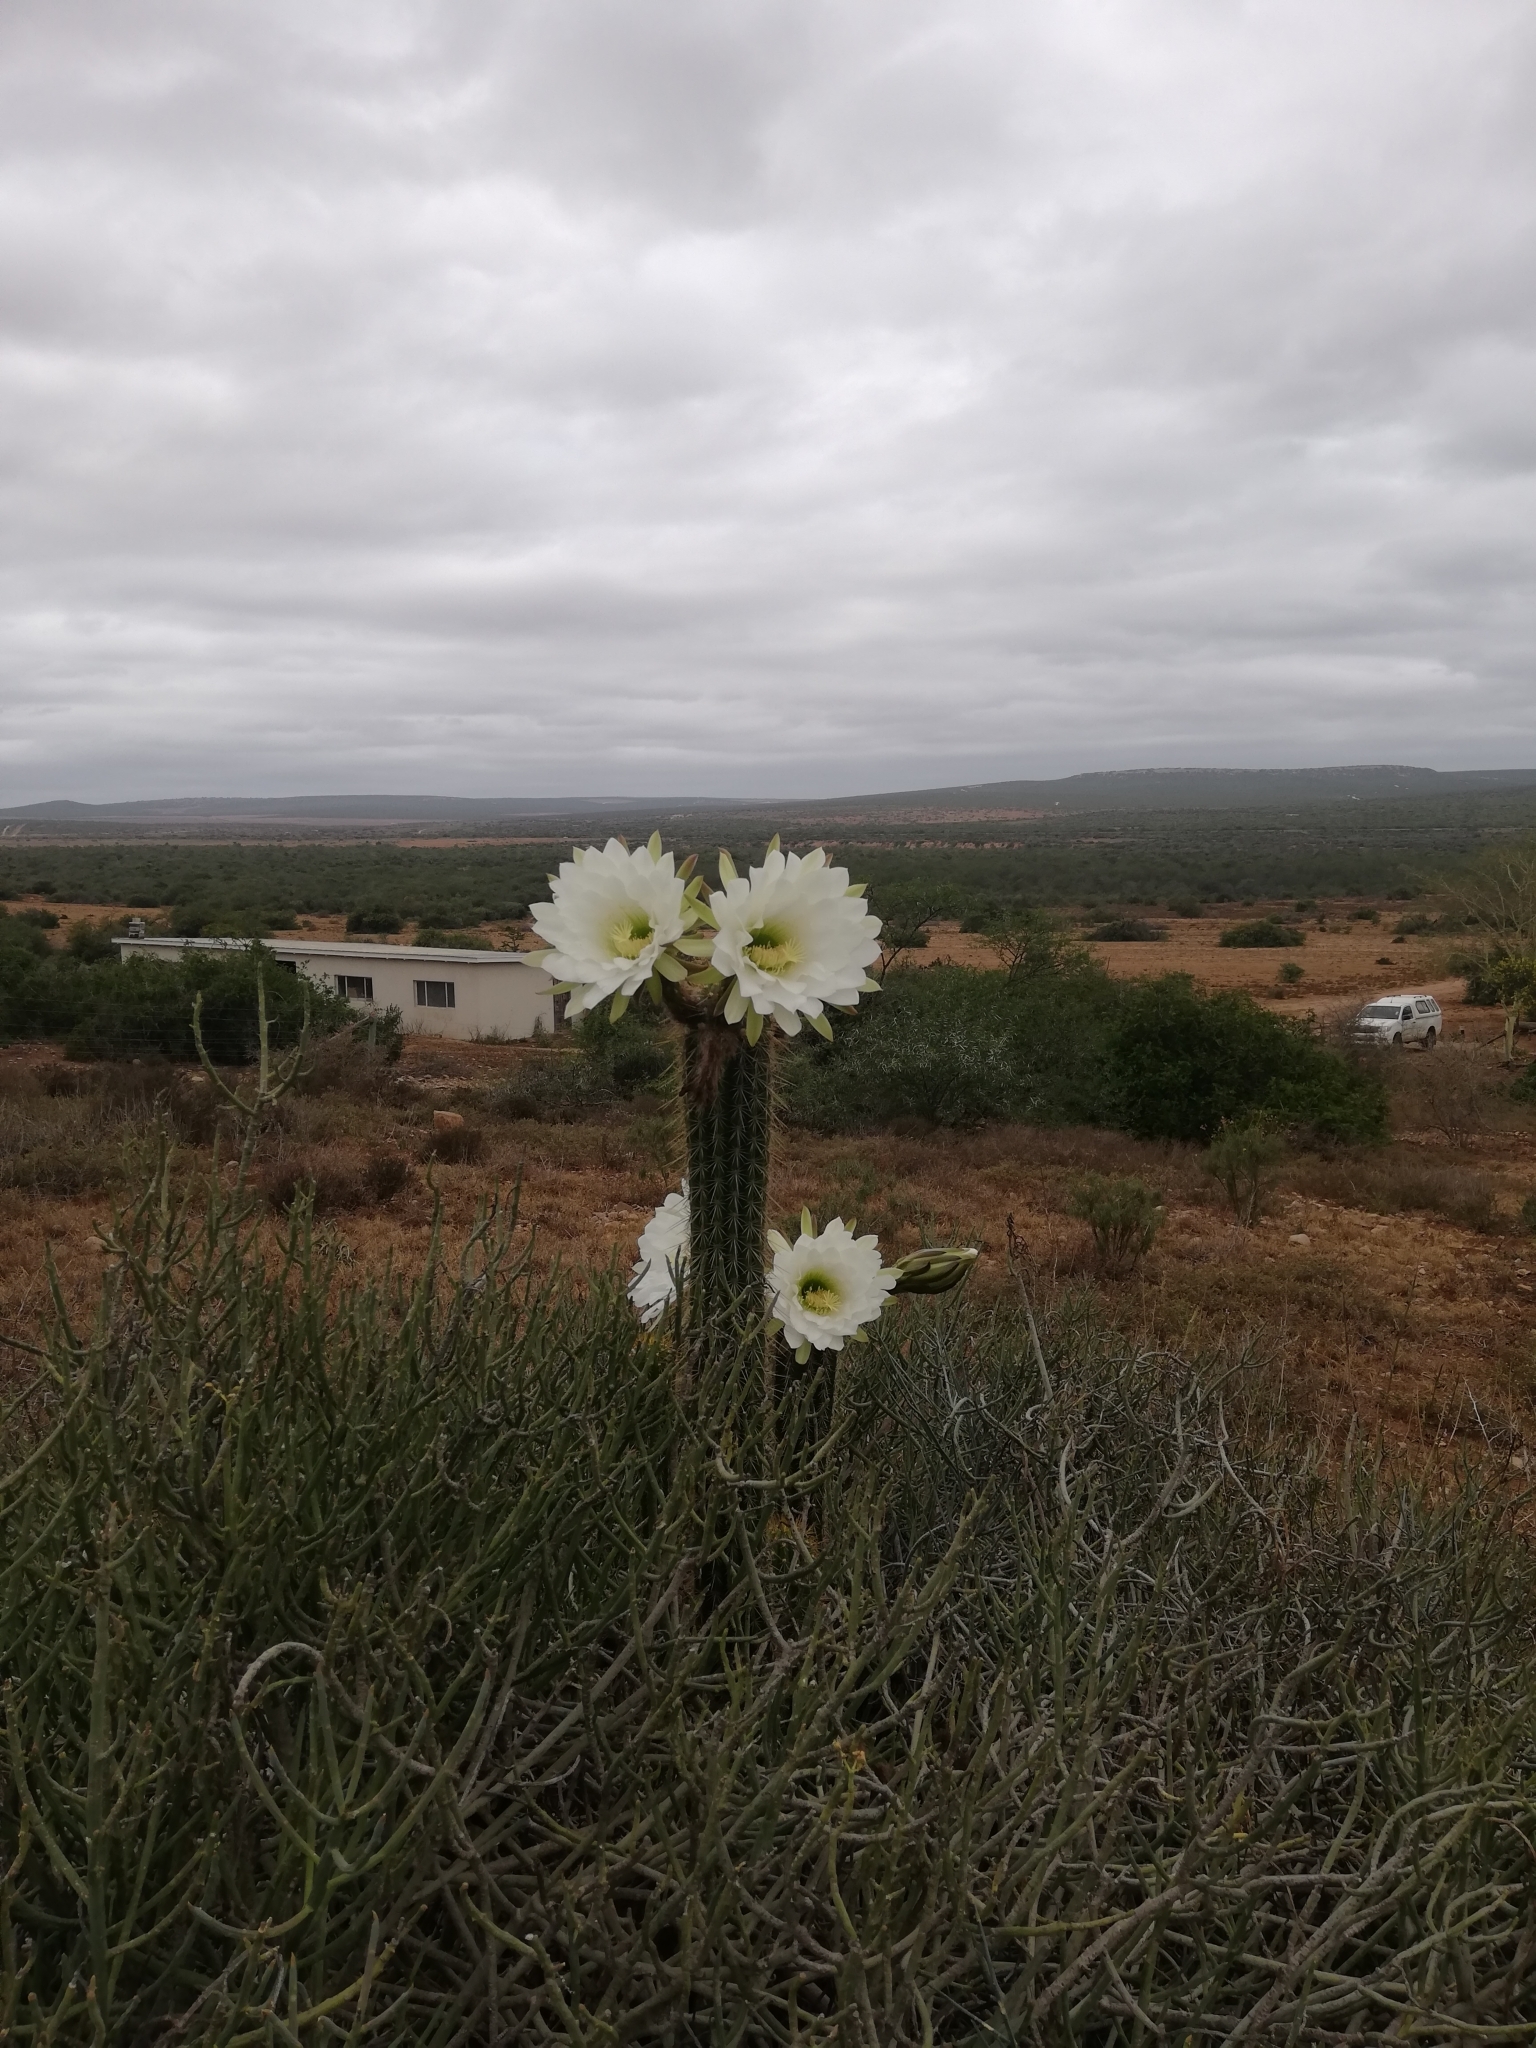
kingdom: Plantae
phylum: Tracheophyta
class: Magnoliopsida
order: Caryophyllales
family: Cactaceae
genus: Soehrensia
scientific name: Soehrensia spachiana
